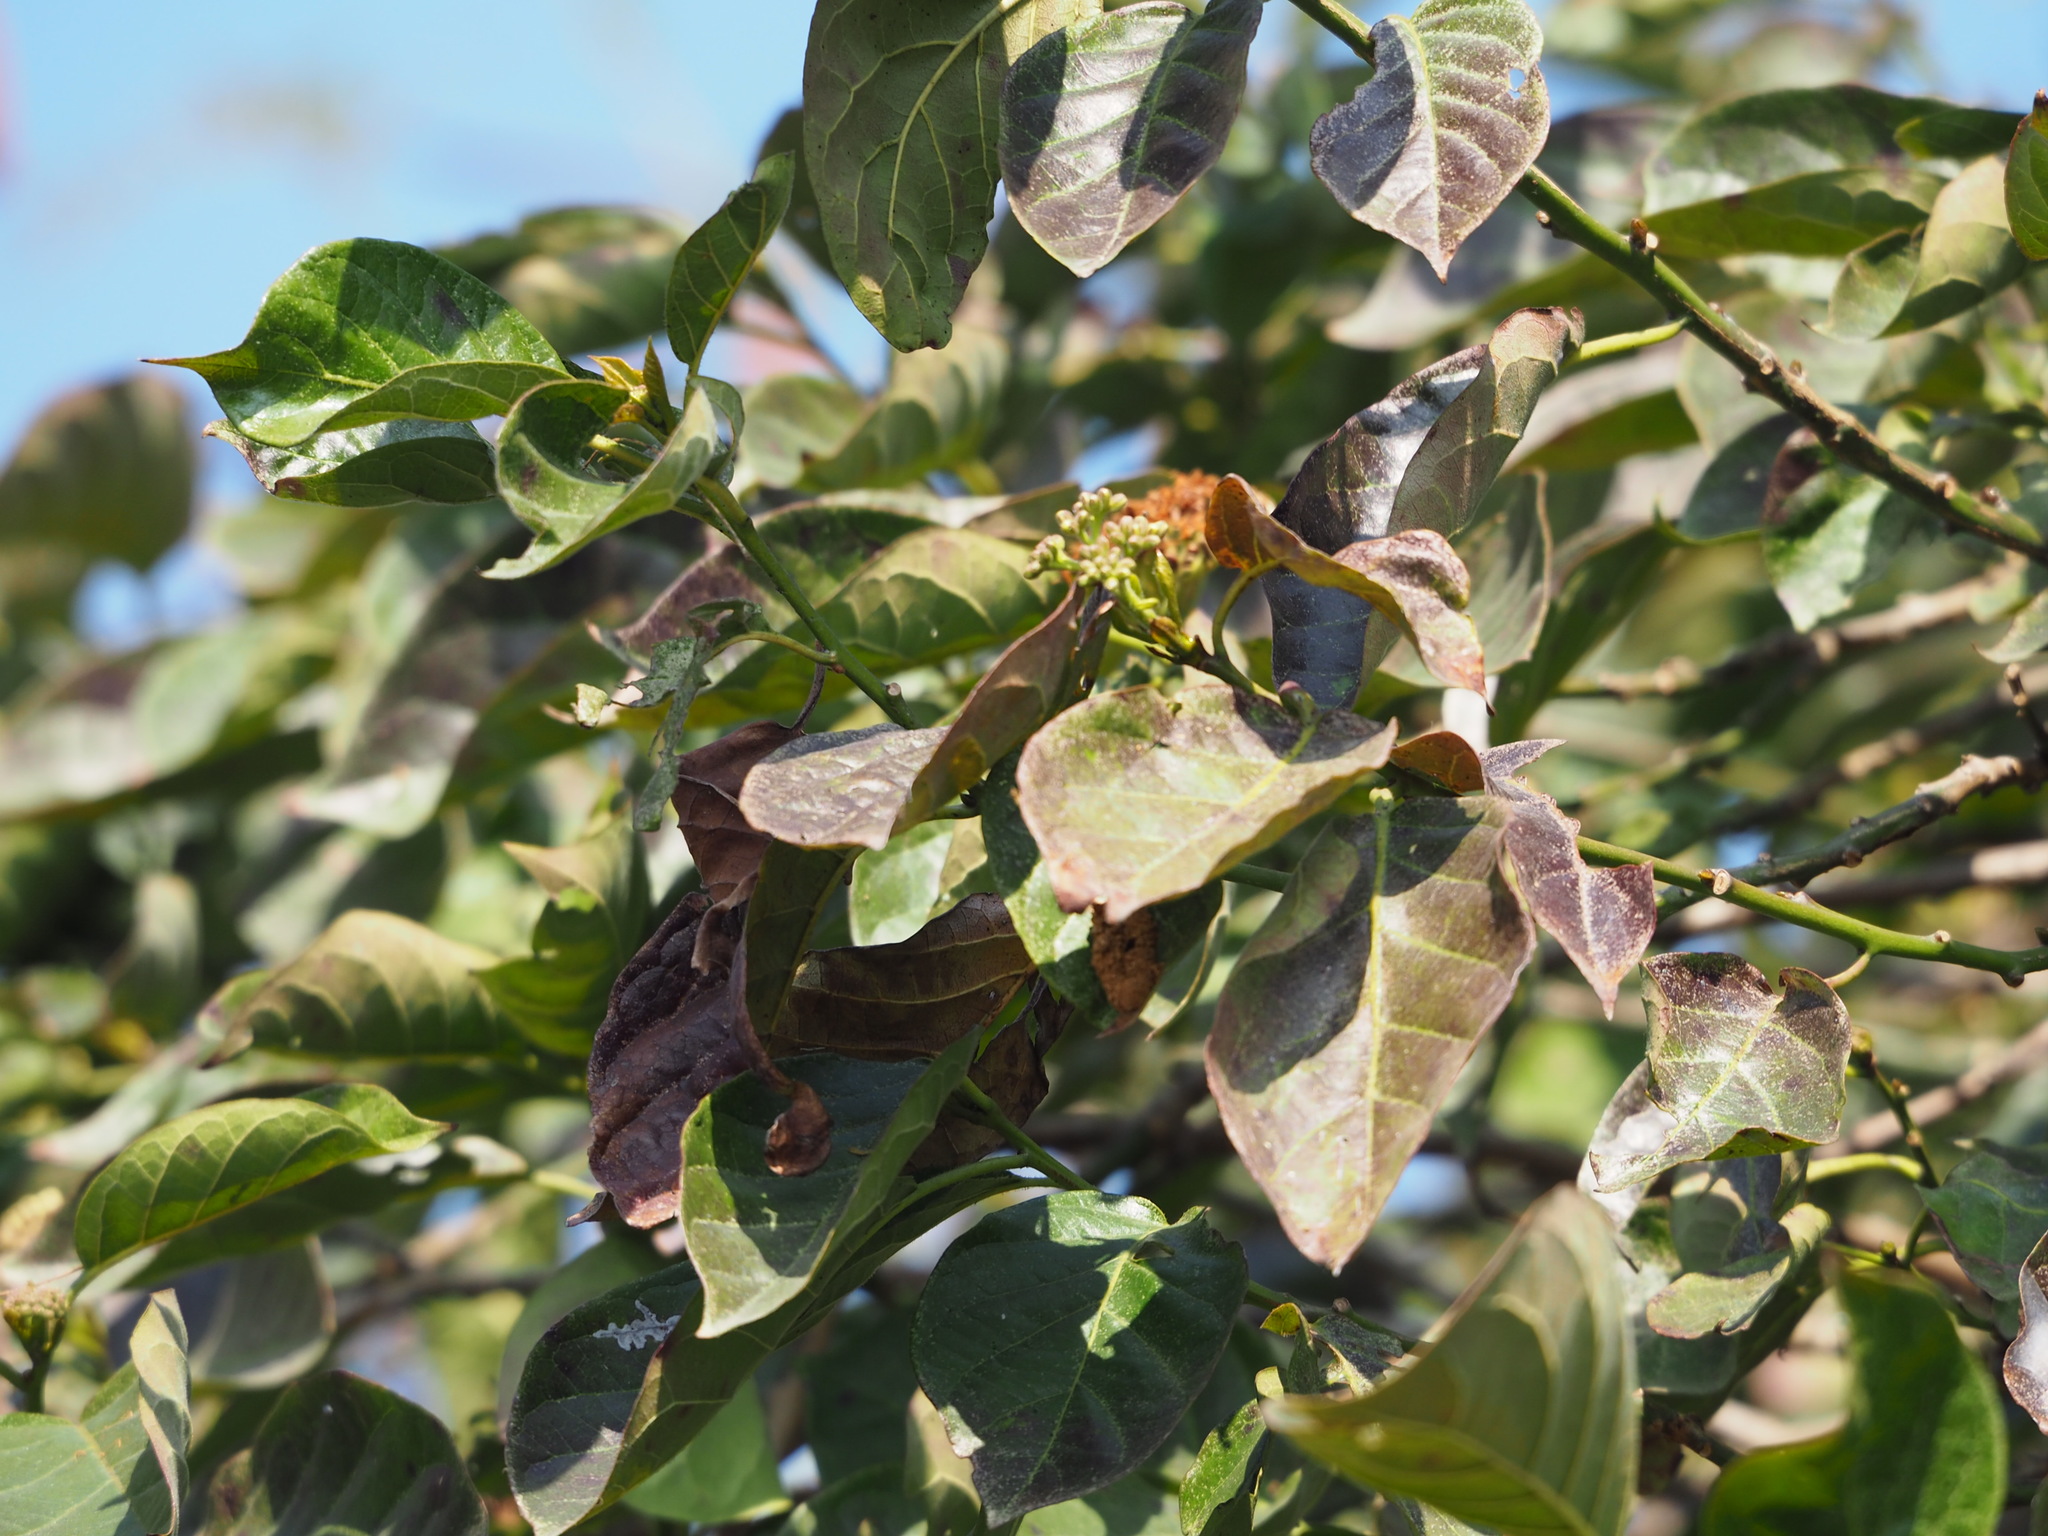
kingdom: Plantae
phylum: Tracheophyta
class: Magnoliopsida
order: Boraginales
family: Ehretiaceae
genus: Ehretia
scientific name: Ehretia resinosa
